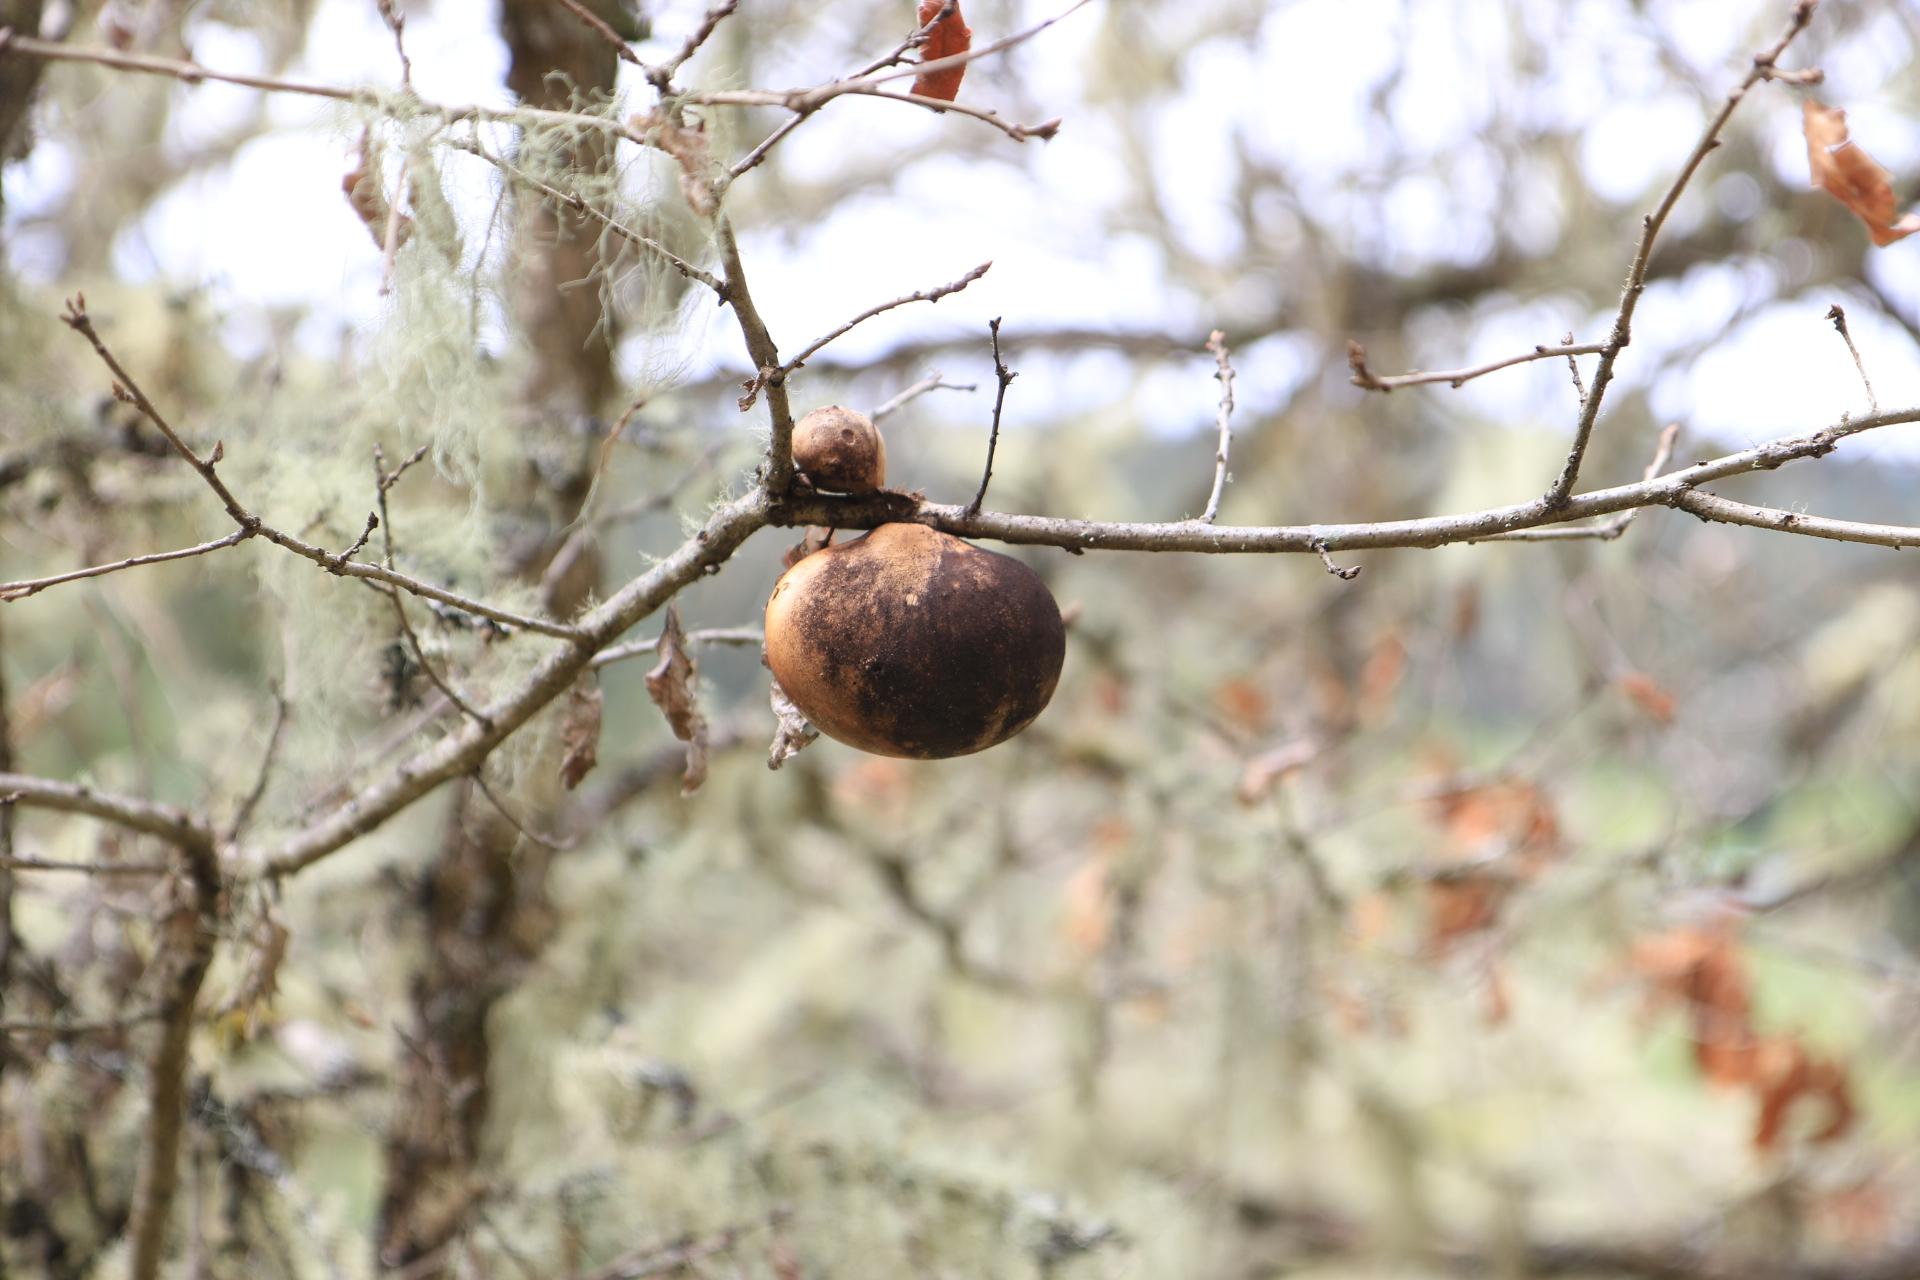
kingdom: Animalia
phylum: Arthropoda
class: Insecta
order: Hymenoptera
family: Cynipidae
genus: Andricus
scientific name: Andricus quercuscalifornicus
